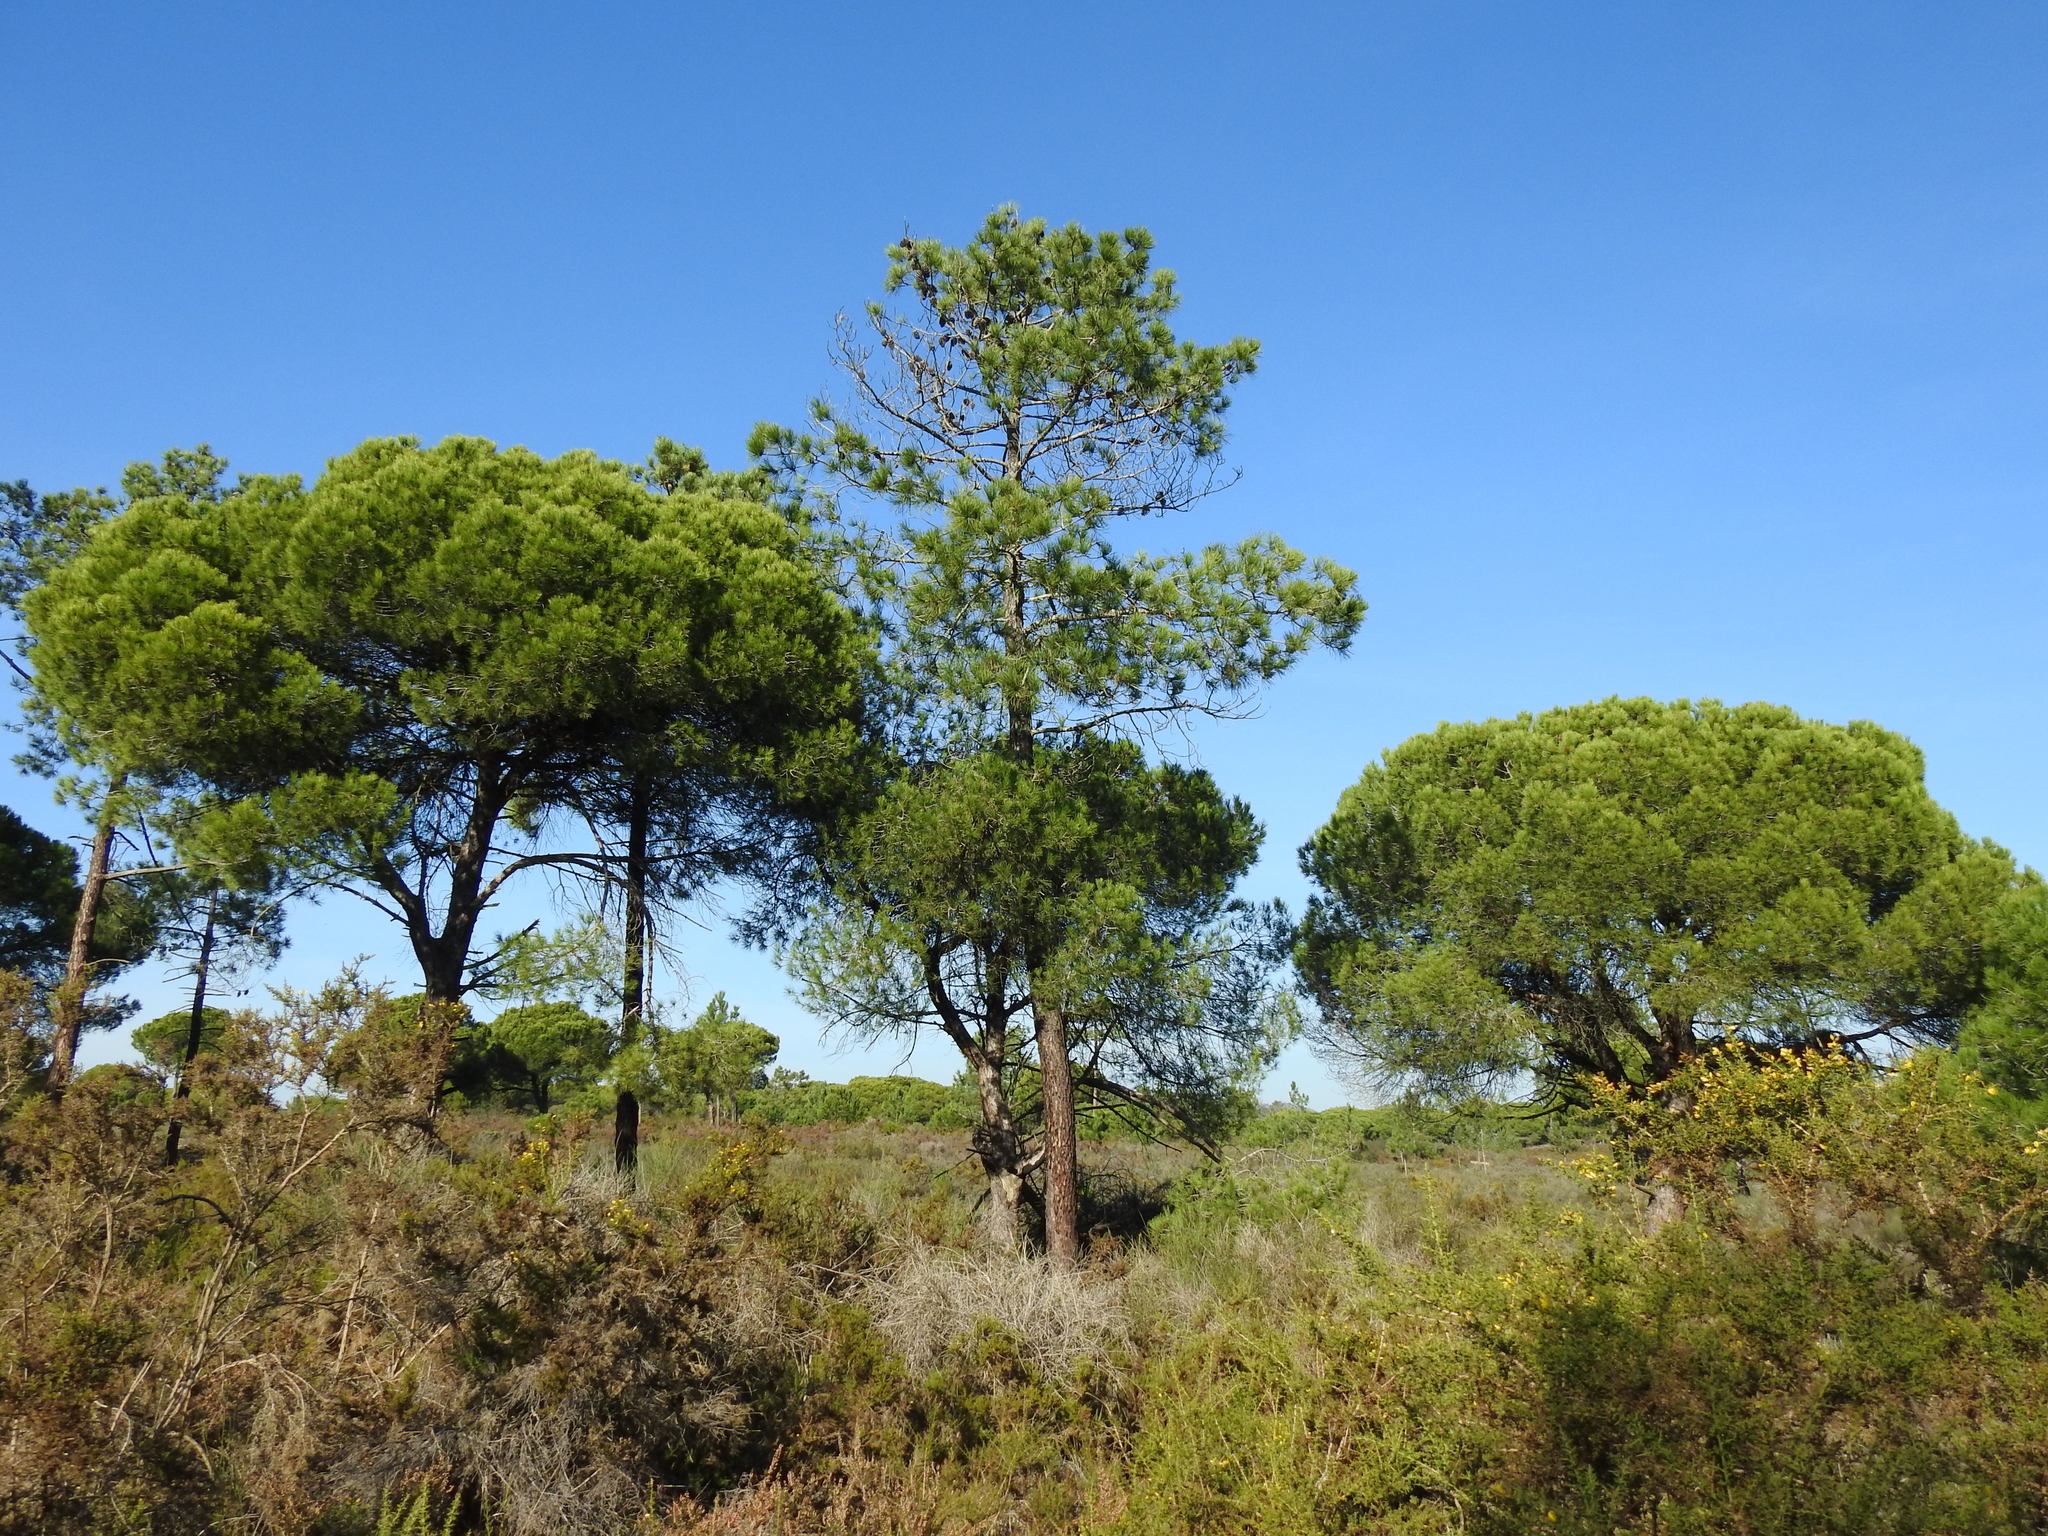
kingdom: Plantae
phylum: Tracheophyta
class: Pinopsida
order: Pinales
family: Pinaceae
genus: Pinus
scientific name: Pinus pinea
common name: Italian stone pine
